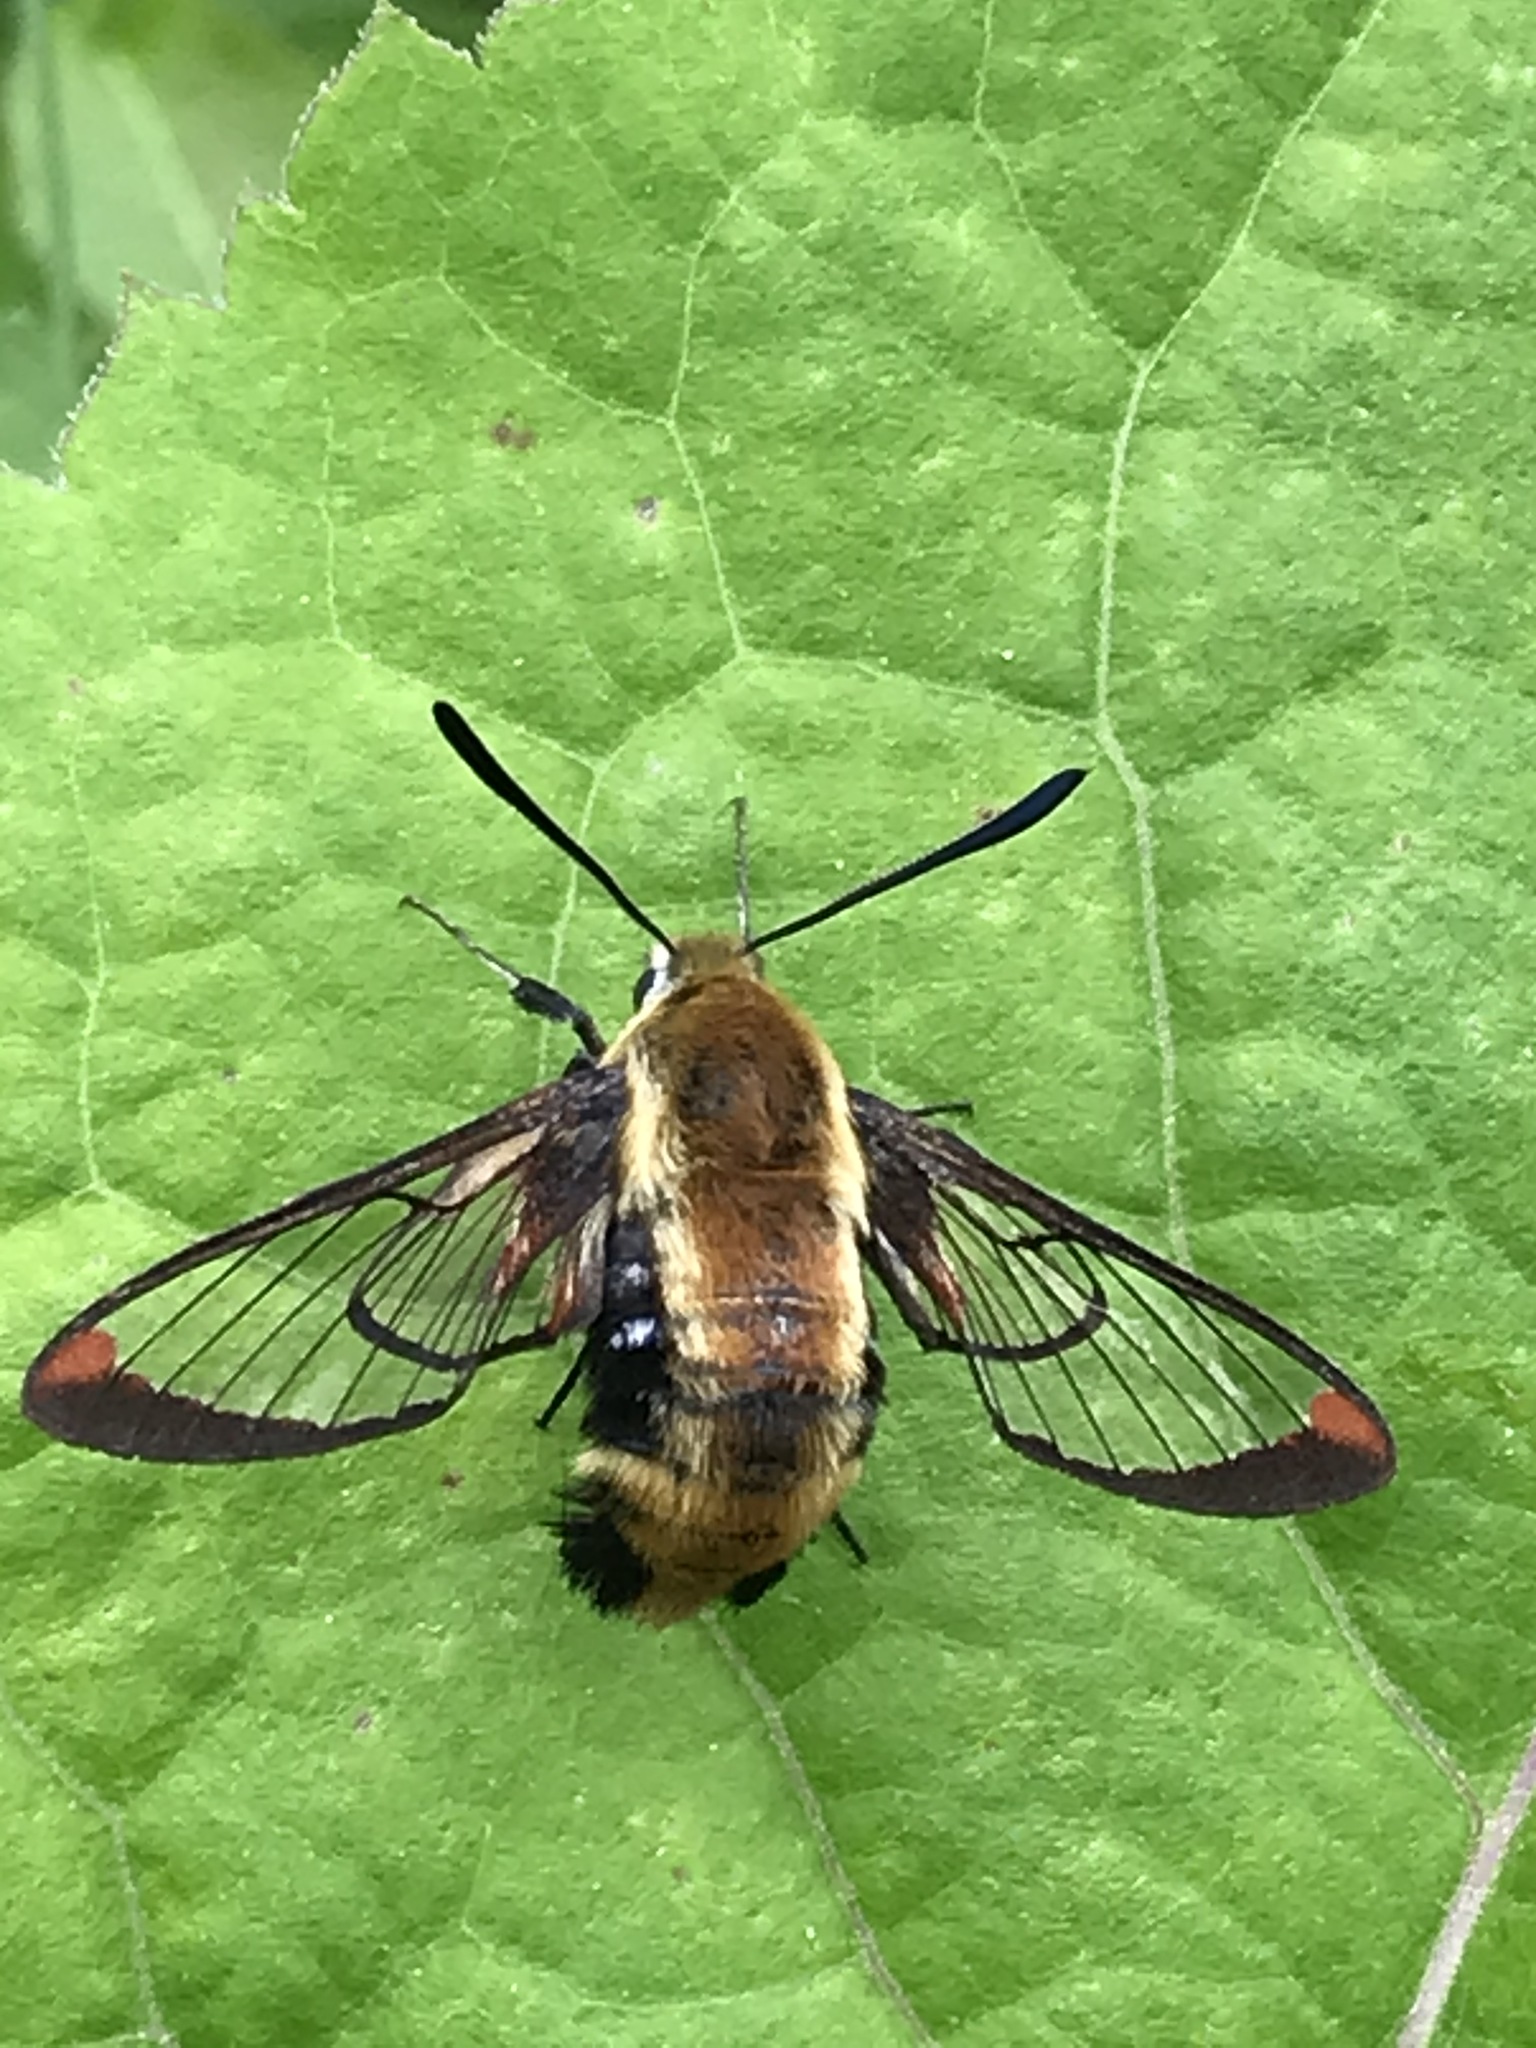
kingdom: Animalia
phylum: Arthropoda
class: Insecta
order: Lepidoptera
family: Sphingidae
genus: Hemaris
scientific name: Hemaris diffinis
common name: Bumblebee moth
